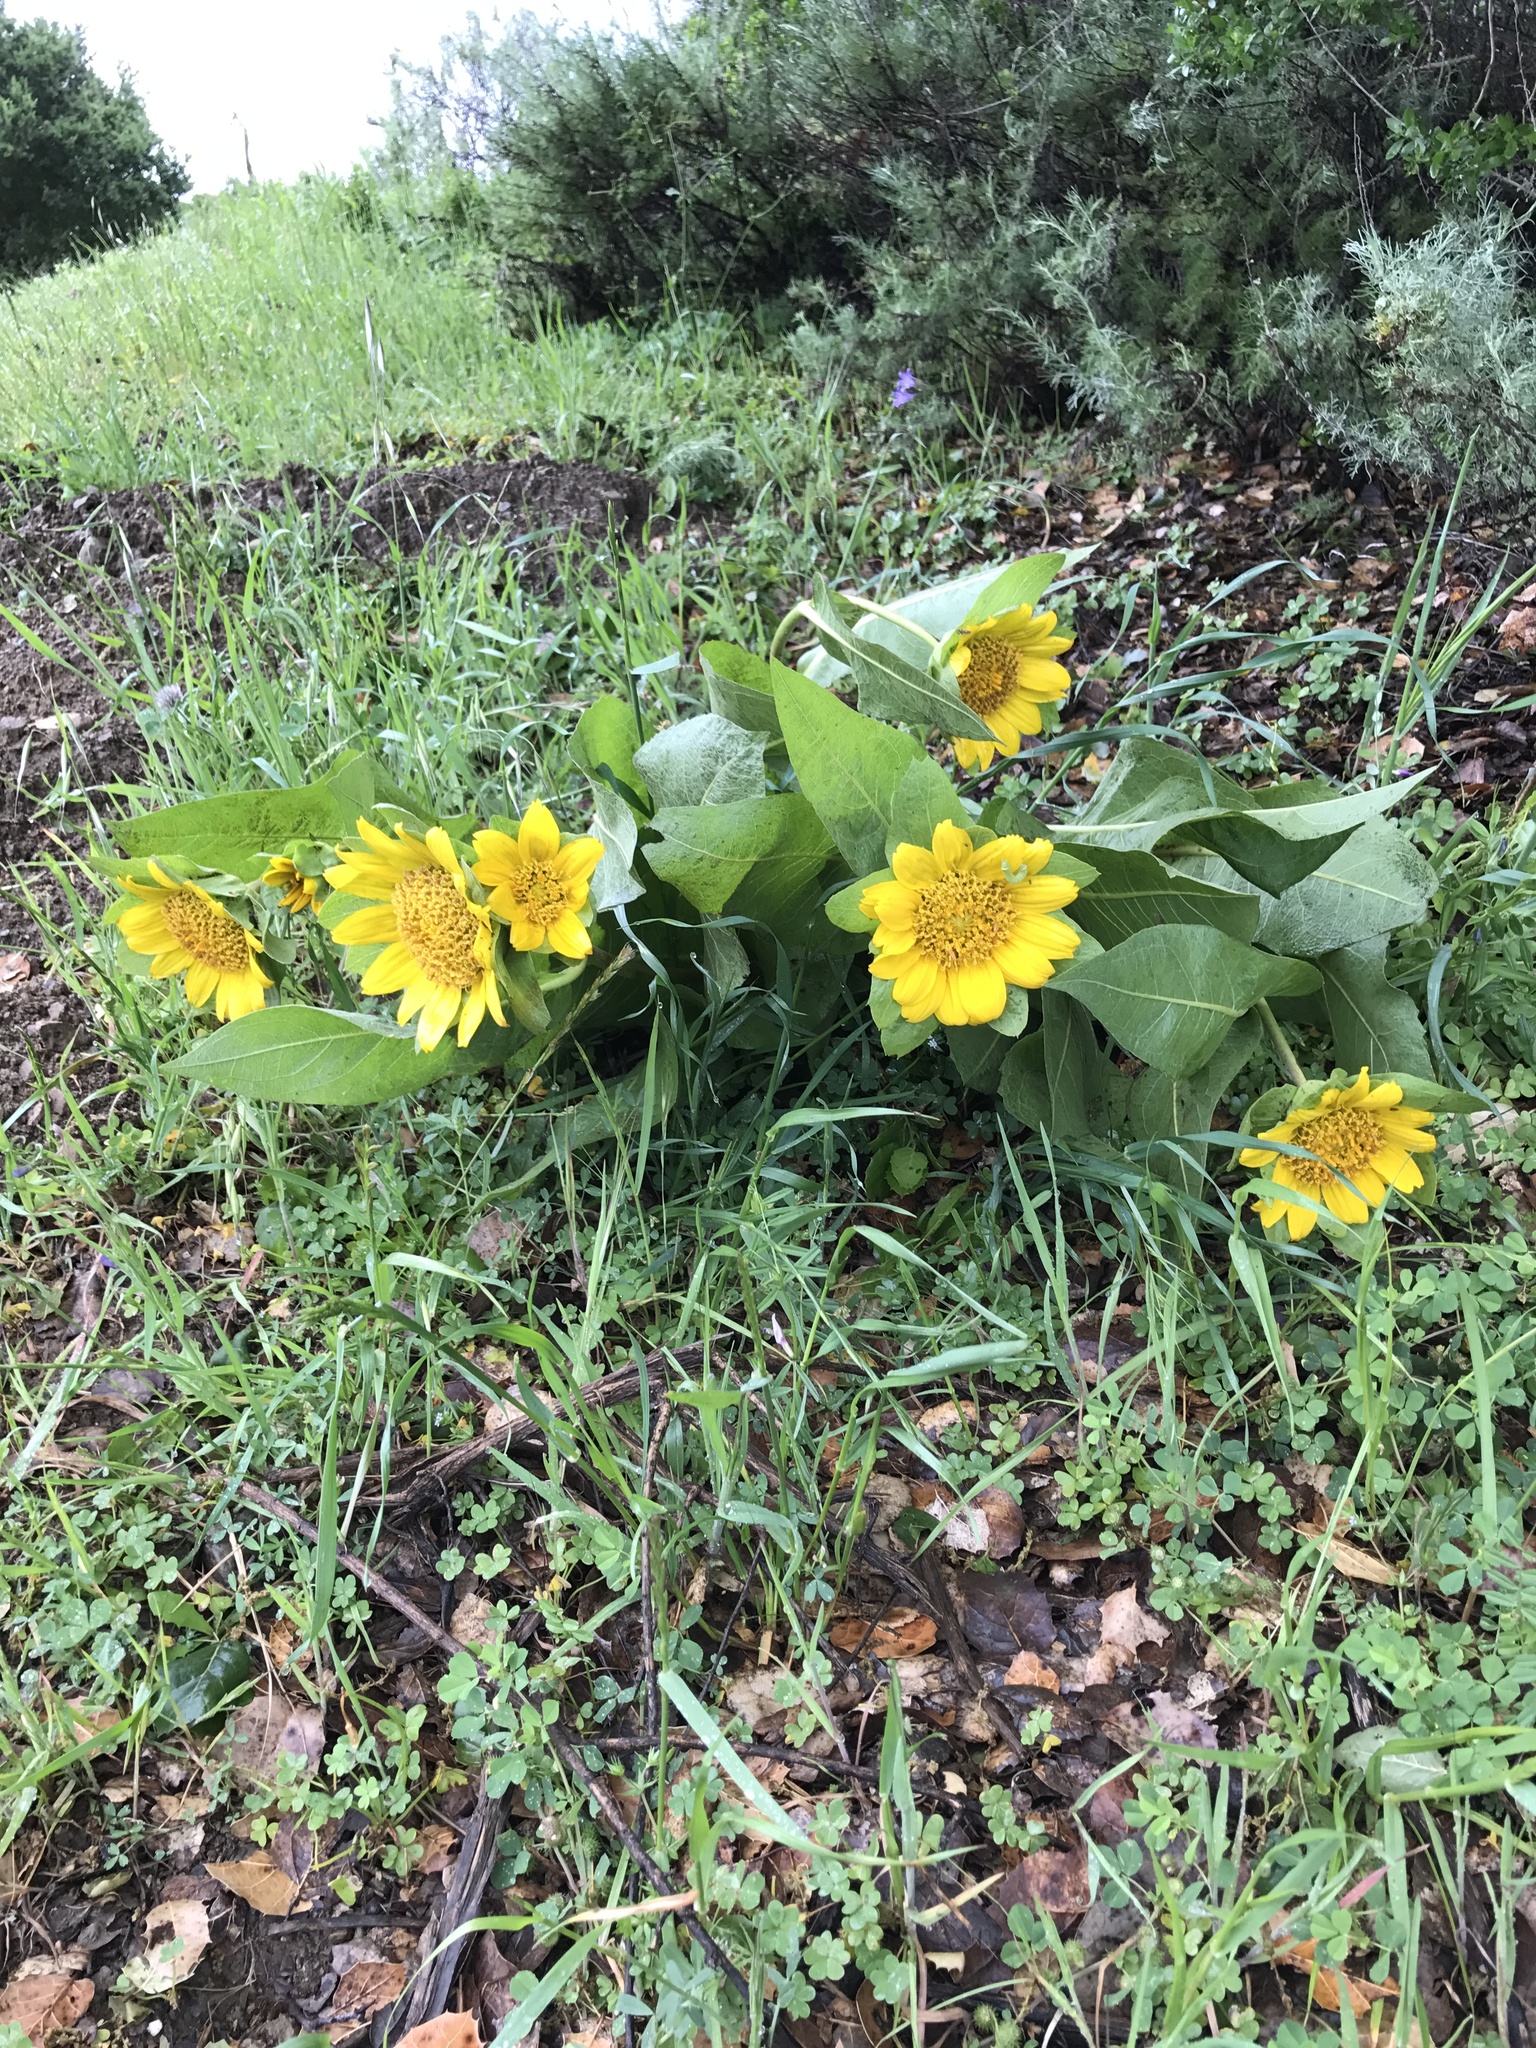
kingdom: Plantae
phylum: Tracheophyta
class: Magnoliopsida
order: Asterales
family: Asteraceae
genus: Wyethia
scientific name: Wyethia glabra
